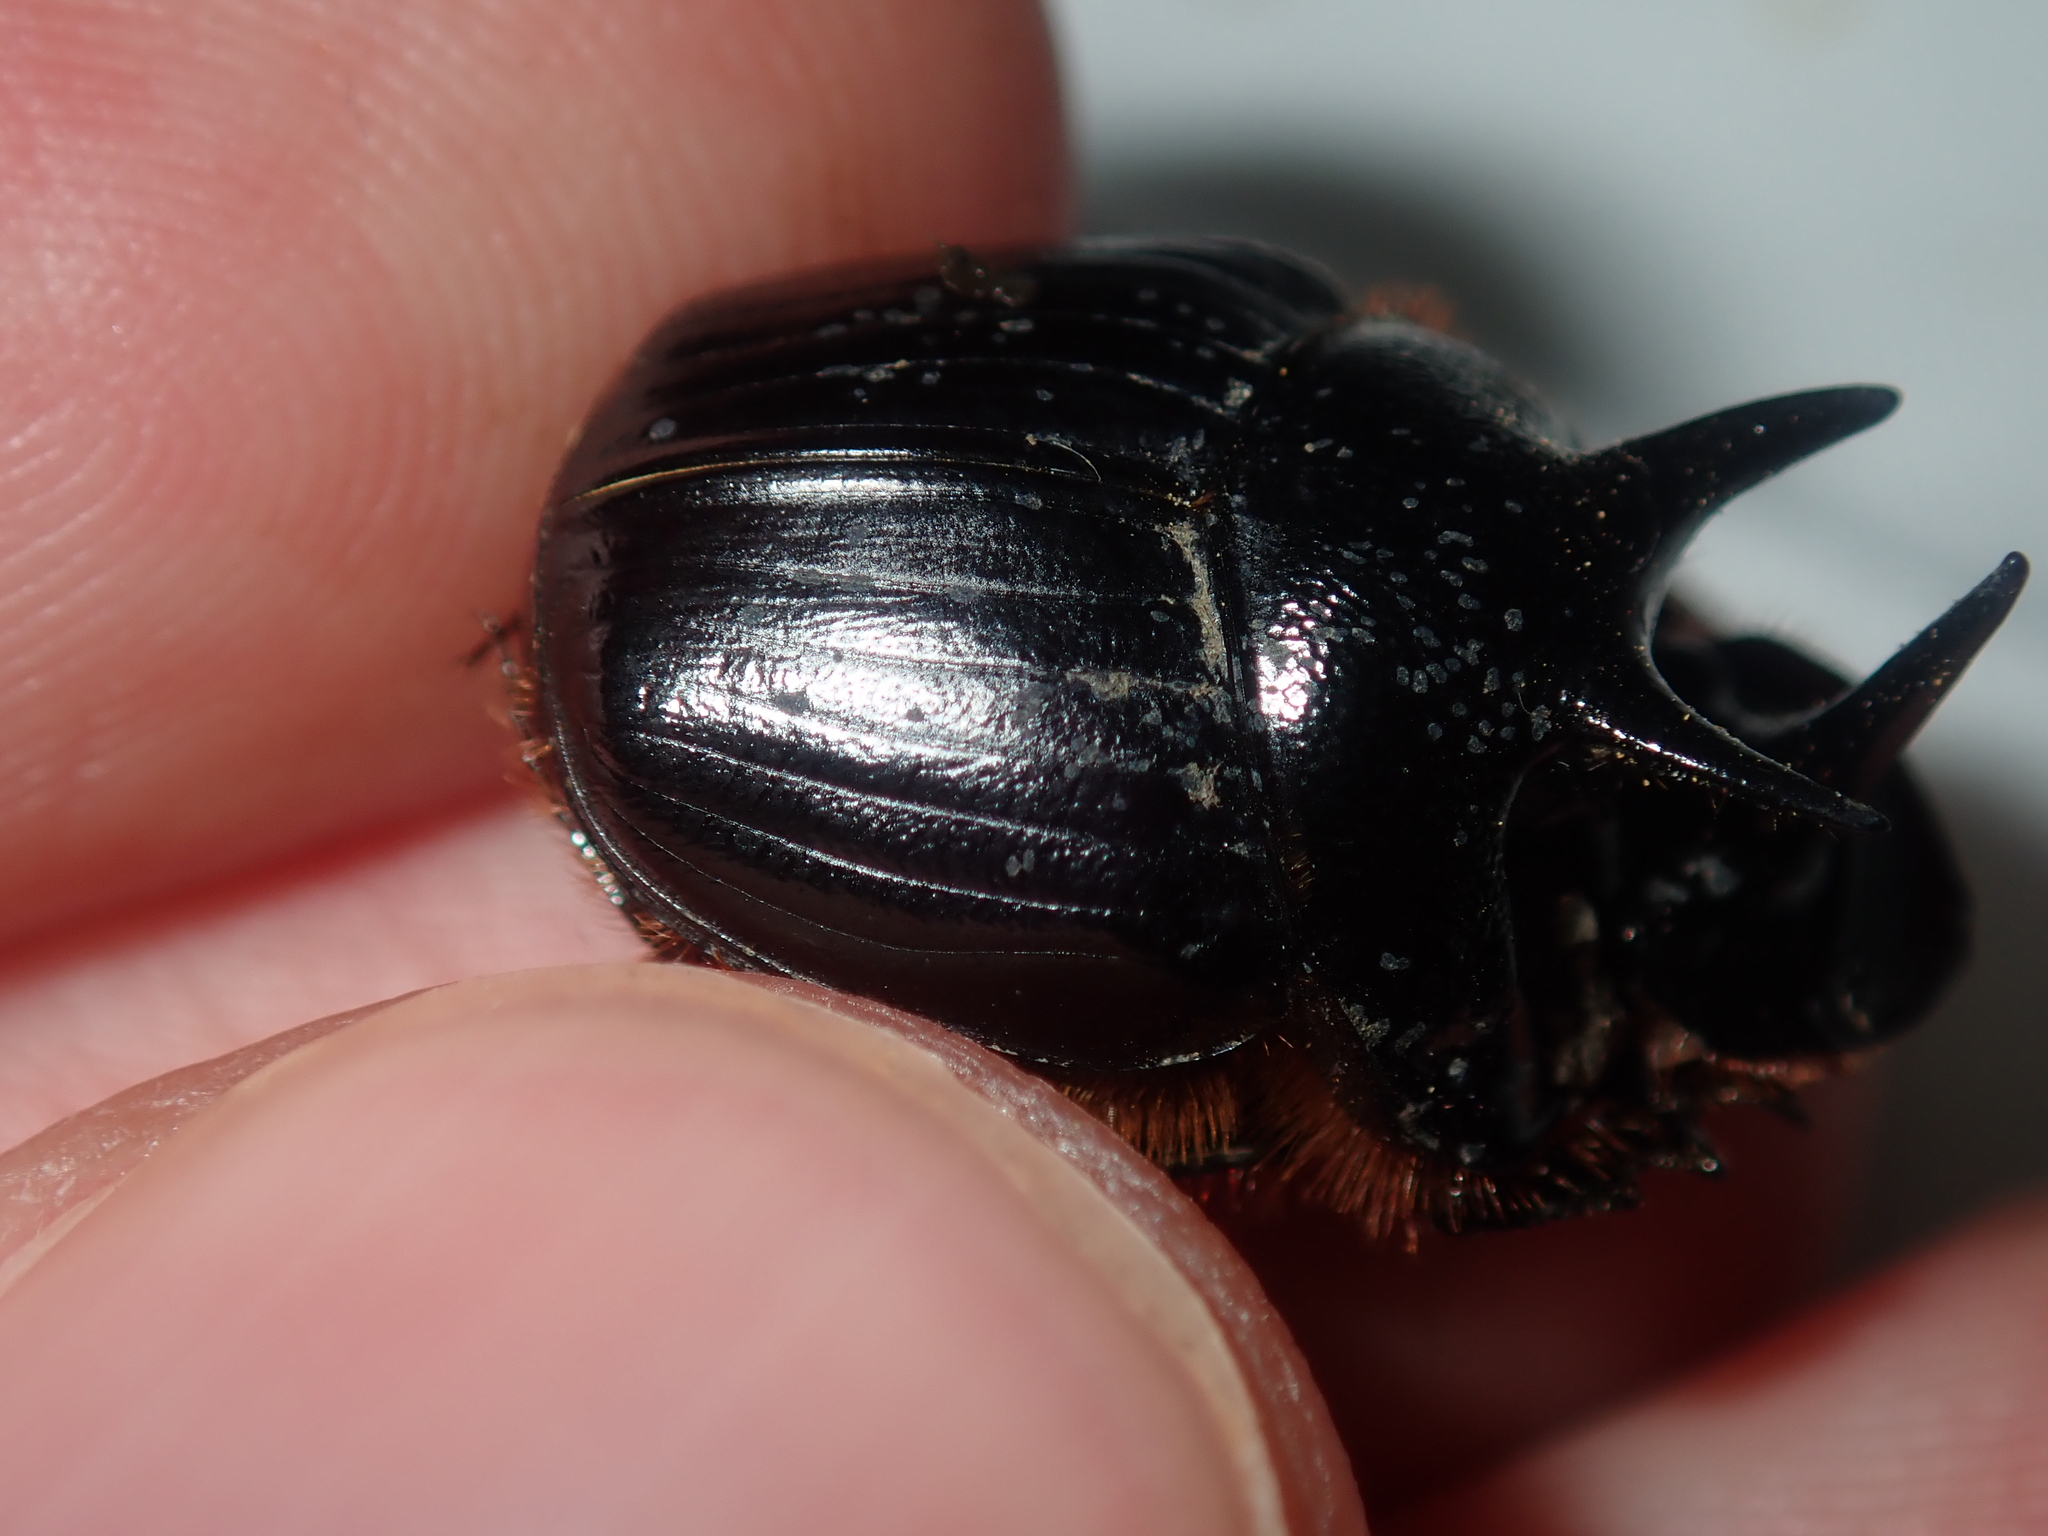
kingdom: Animalia
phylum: Arthropoda
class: Insecta
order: Coleoptera
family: Scarabaeidae
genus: Onthophagus
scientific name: Onthophagus ferox
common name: Western dung beetle
